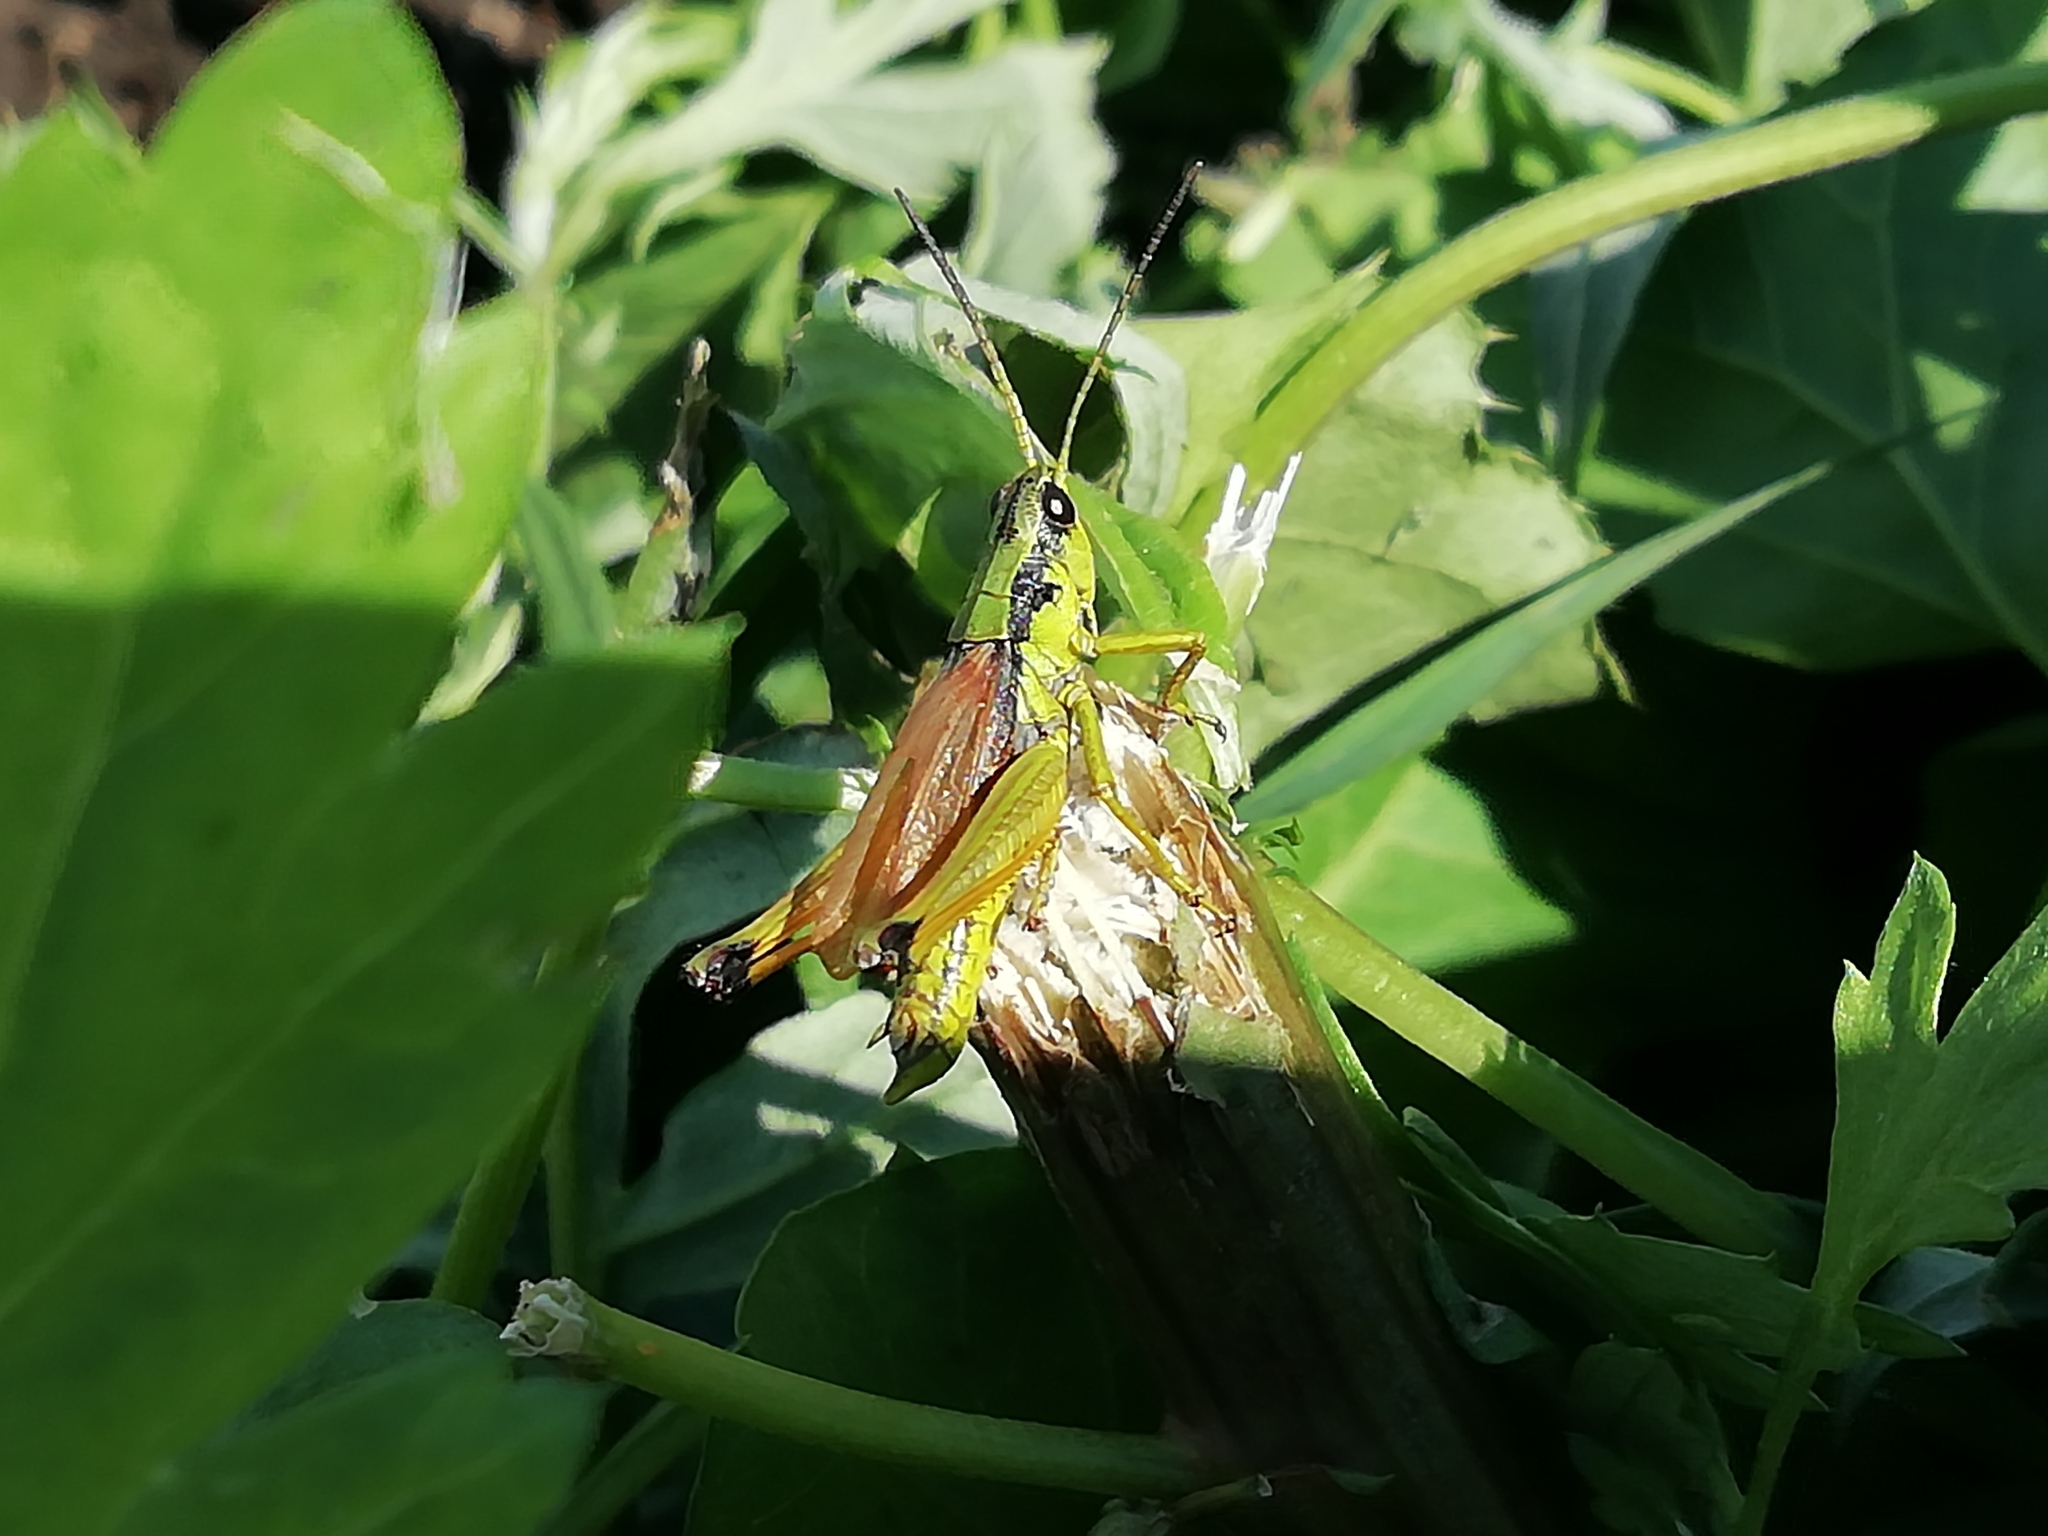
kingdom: Animalia
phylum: Arthropoda
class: Insecta
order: Orthoptera
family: Acrididae
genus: Podismopsis
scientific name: Podismopsis poppiusi
